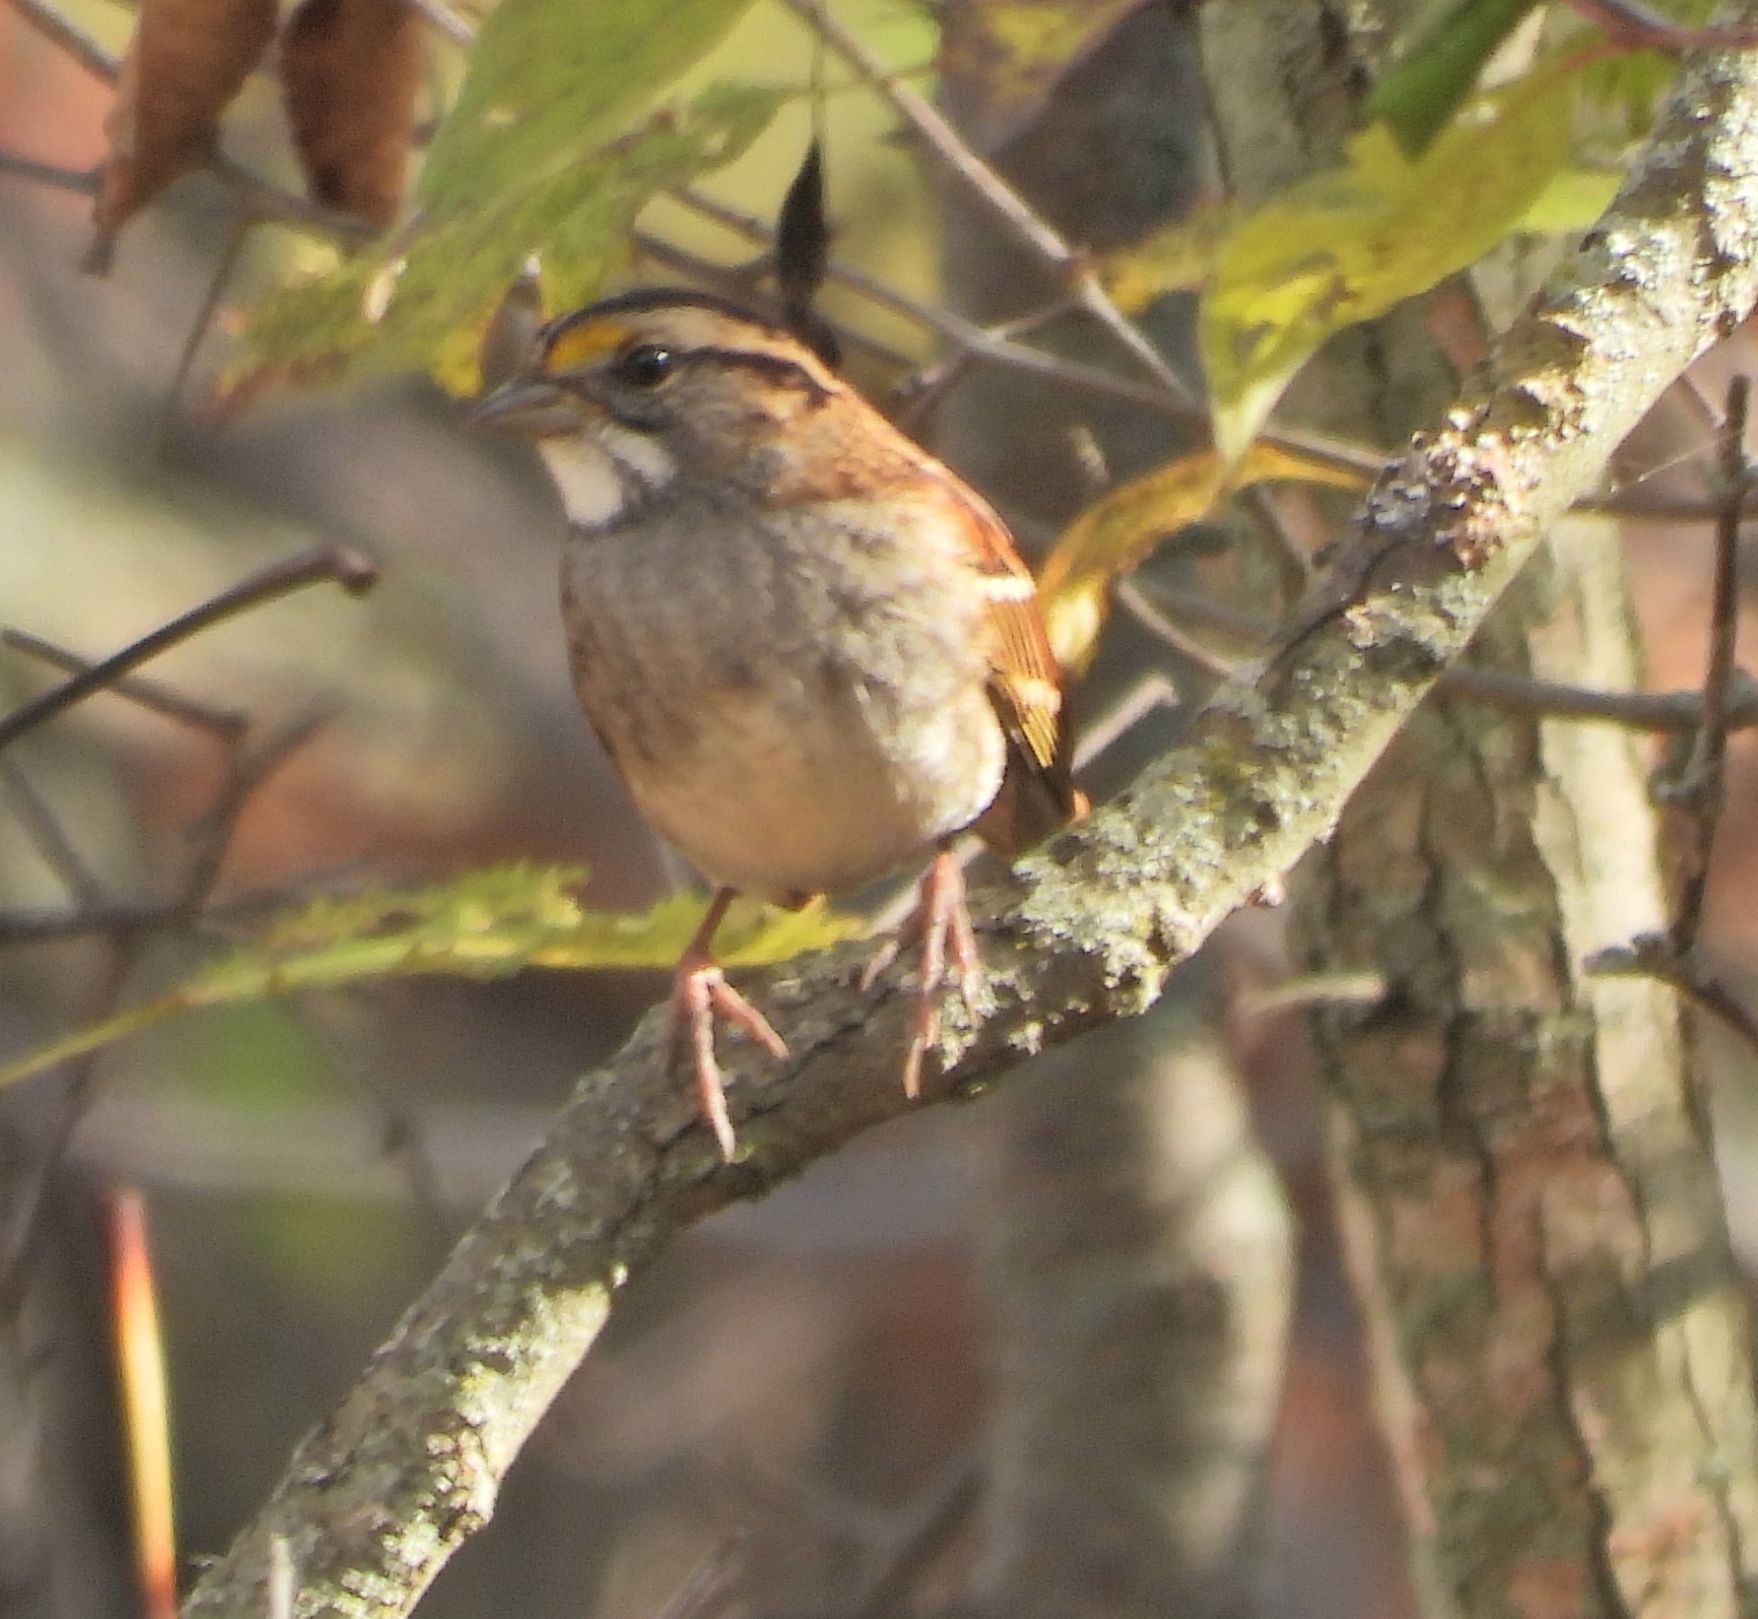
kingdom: Animalia
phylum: Chordata
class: Aves
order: Passeriformes
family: Passerellidae
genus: Zonotrichia
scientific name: Zonotrichia albicollis
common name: White-throated sparrow
